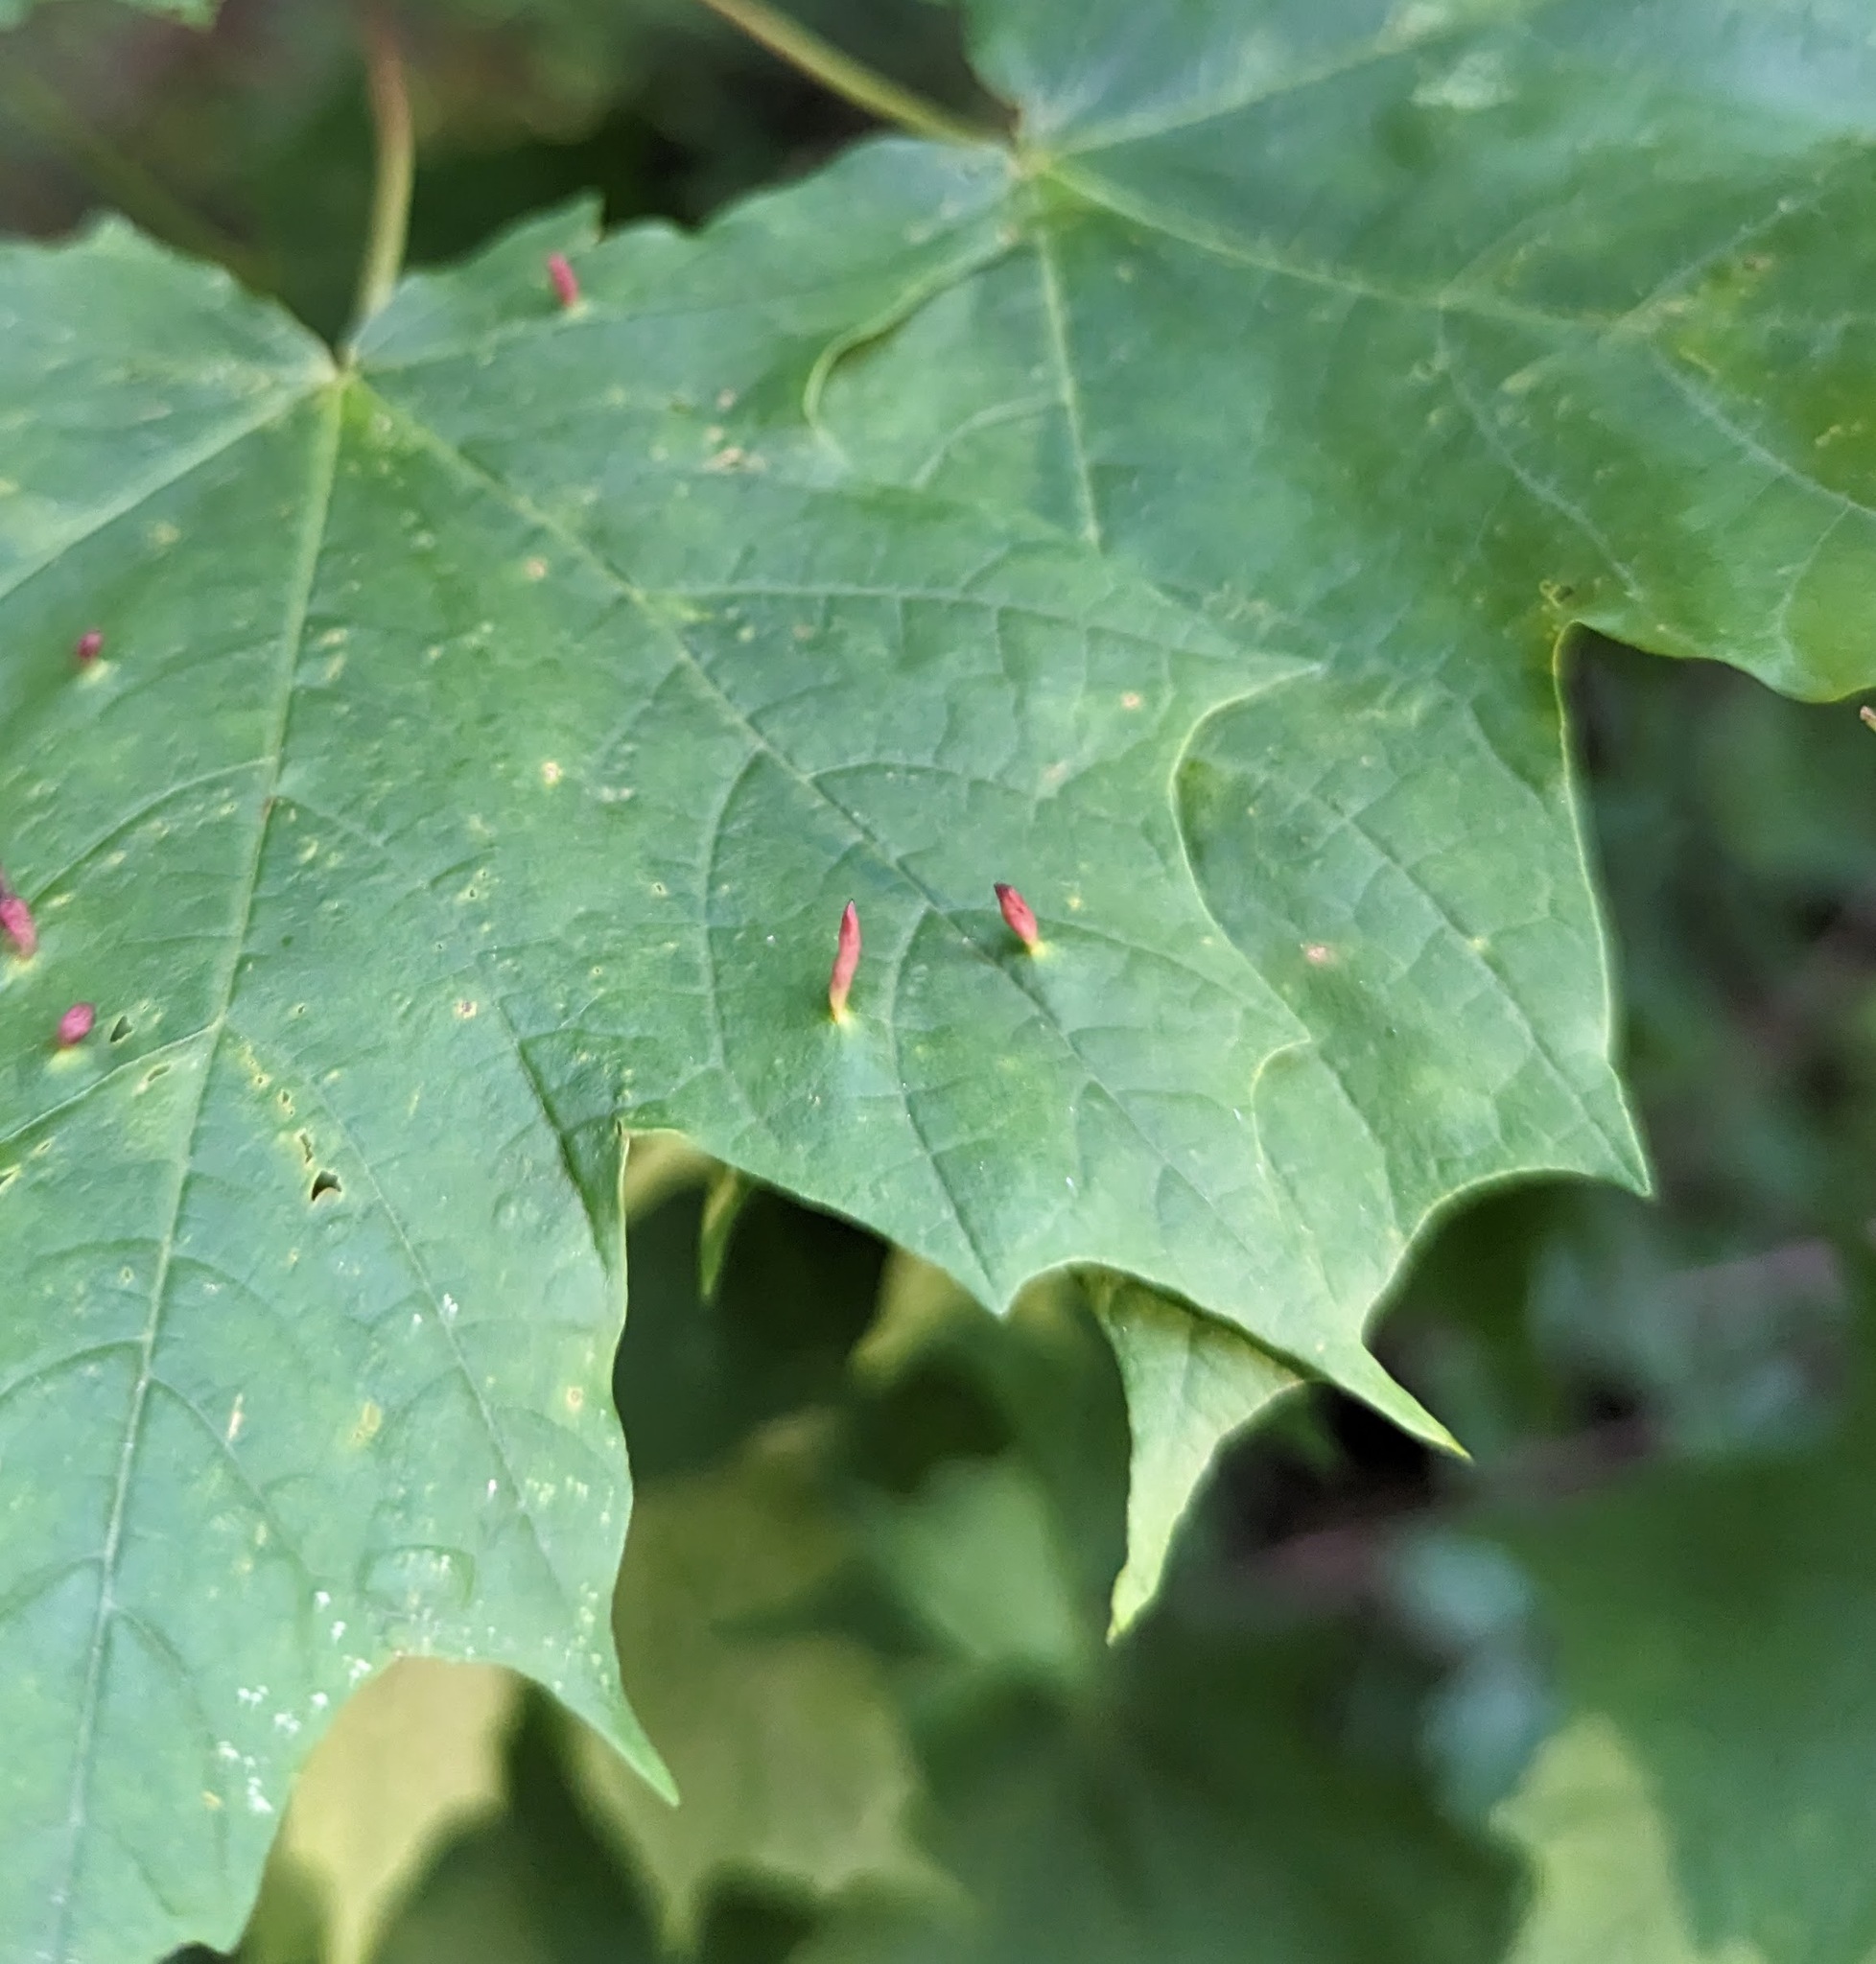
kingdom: Animalia
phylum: Arthropoda
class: Arachnida
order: Trombidiformes
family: Eriophyidae
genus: Vasates
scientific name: Vasates aceriscrumena
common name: Maple spindle gall mite
